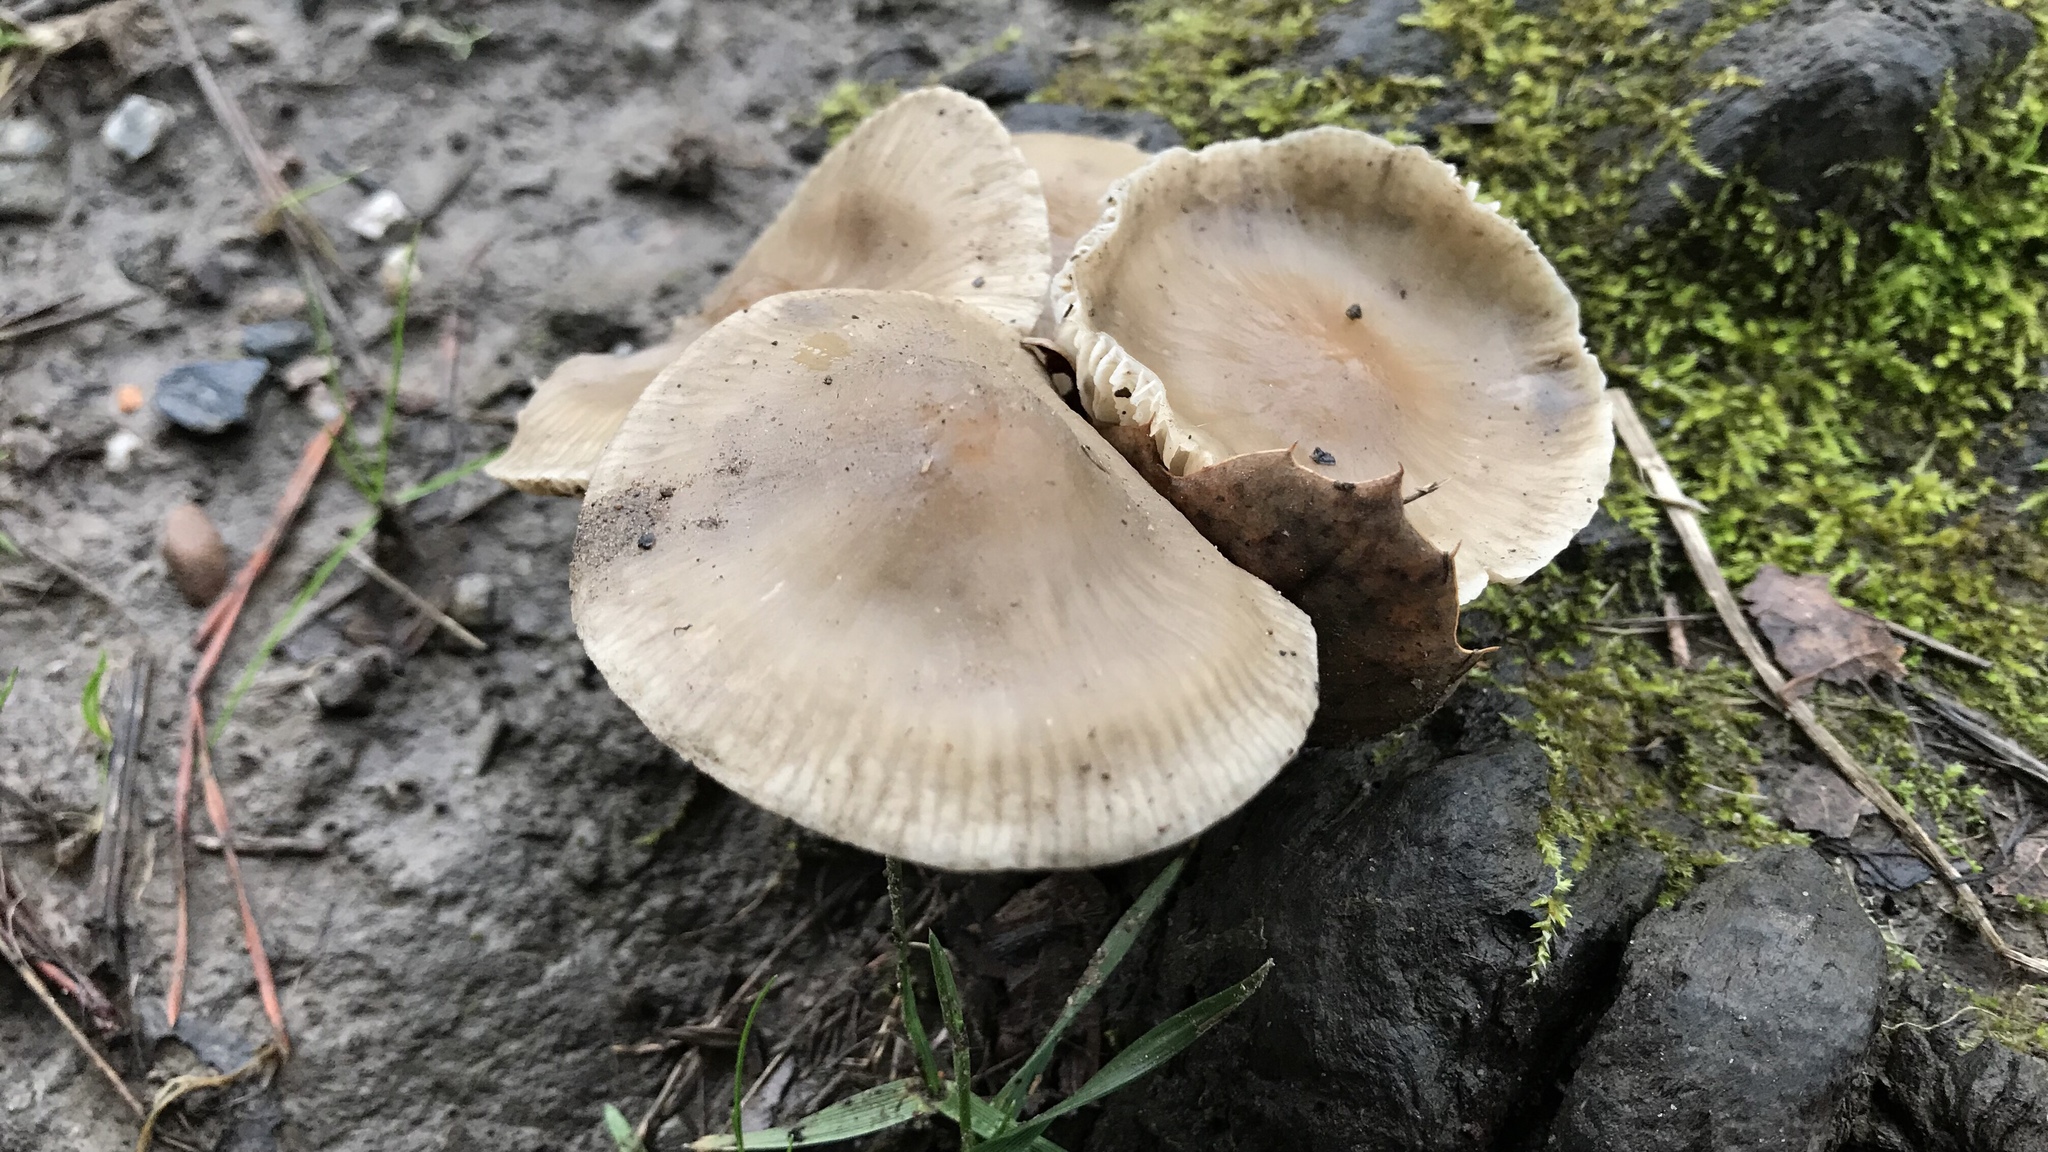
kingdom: Fungi
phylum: Basidiomycota
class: Agaricomycetes
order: Agaricales
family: Mycenaceae
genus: Mycena
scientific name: Mycena galericulata
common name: Bonnet mycena
